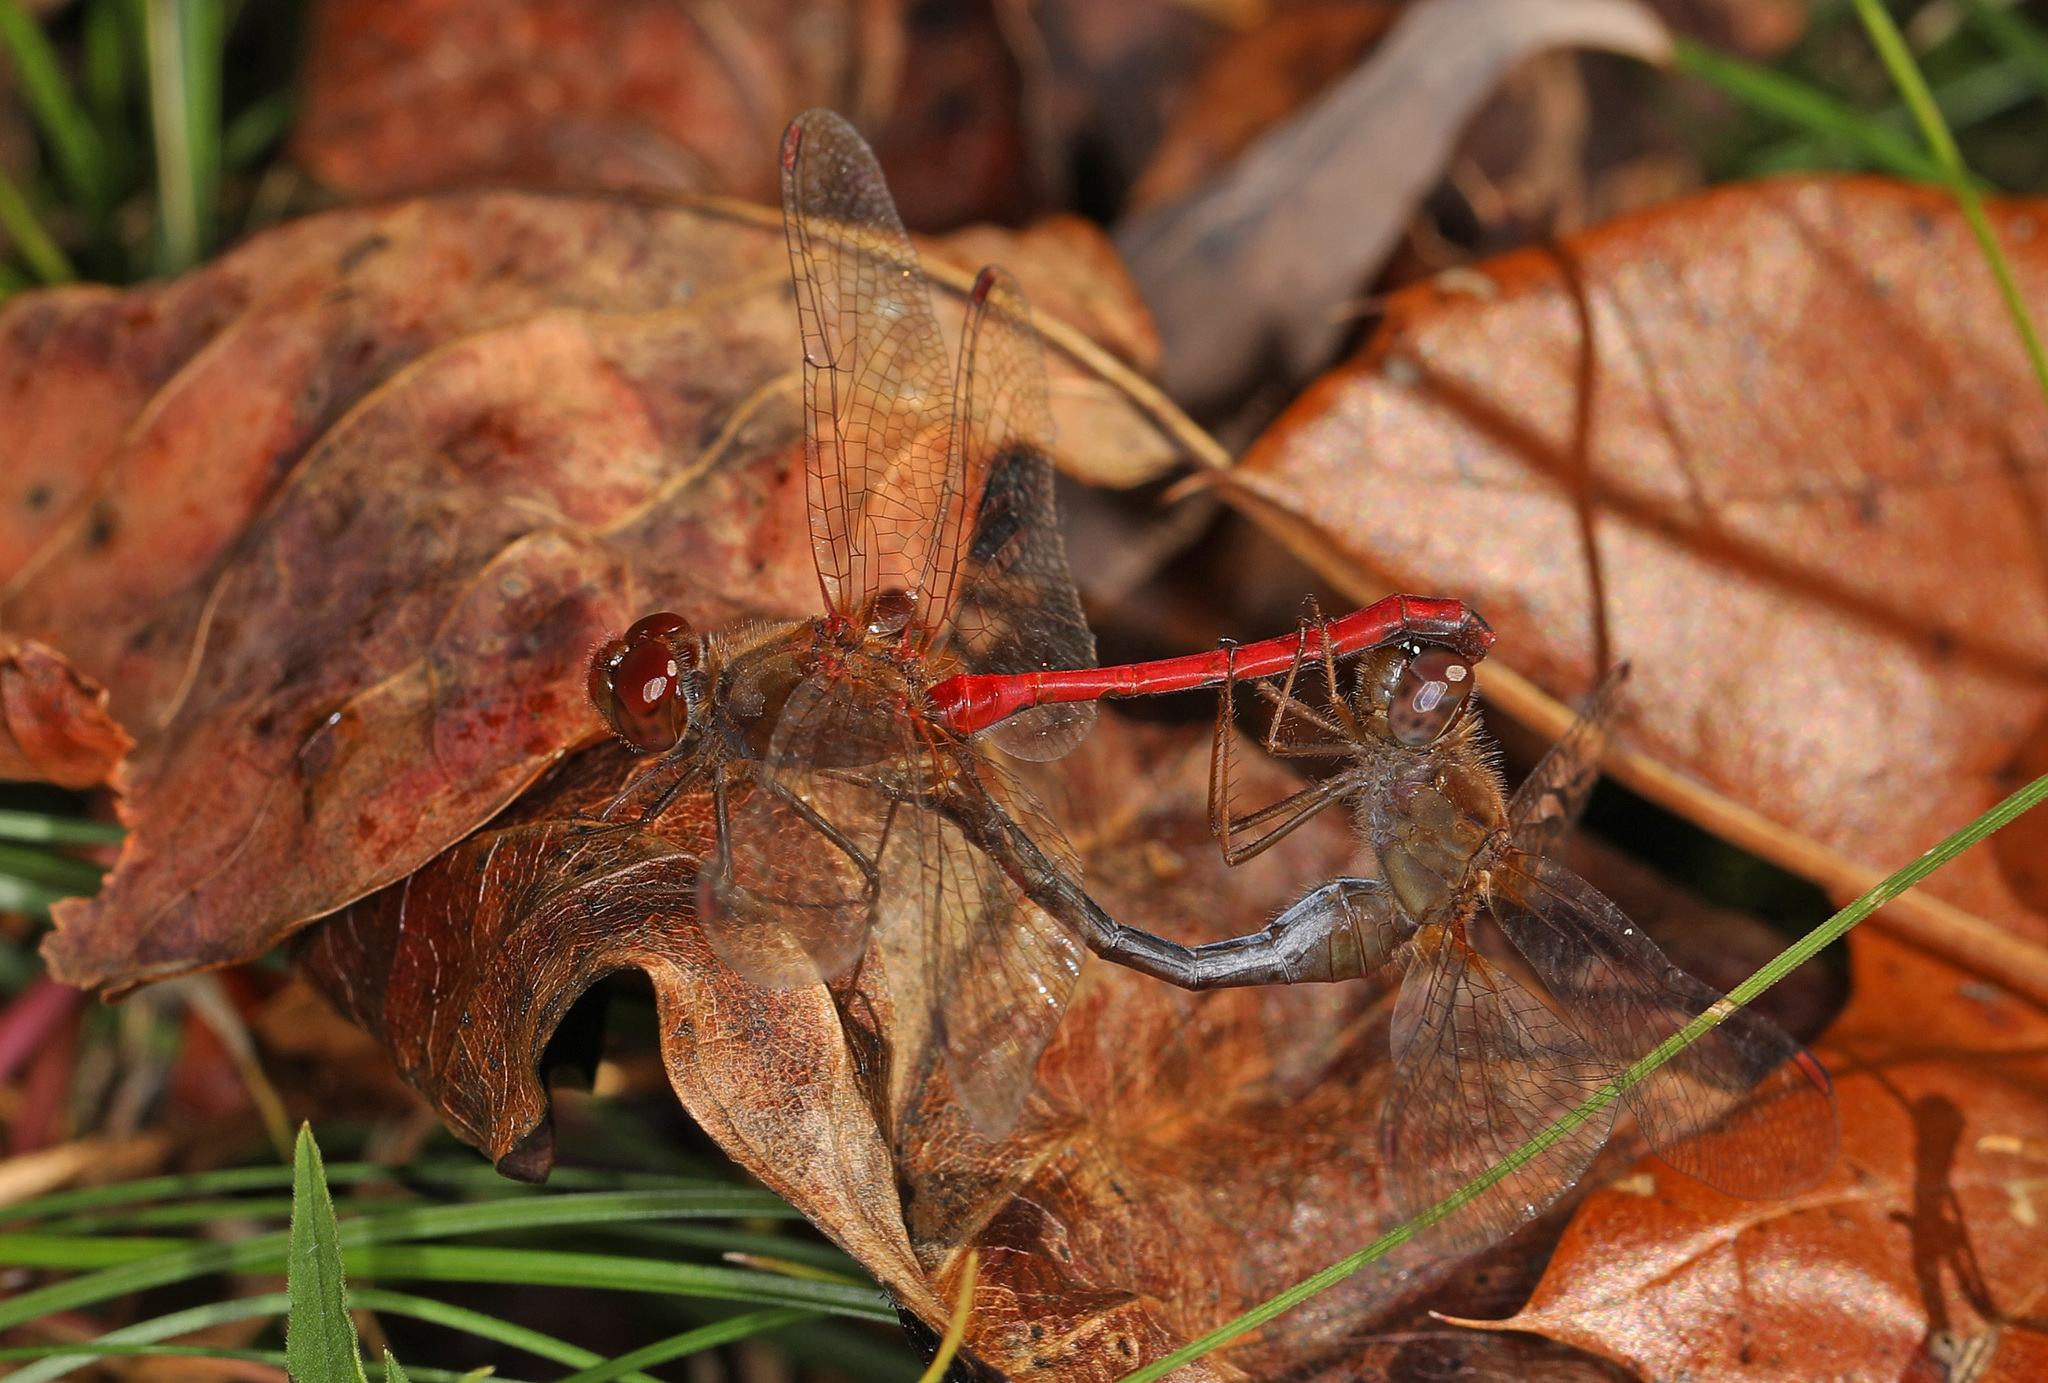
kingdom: Animalia
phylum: Arthropoda
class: Insecta
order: Odonata
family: Libellulidae
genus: Sympetrum
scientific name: Sympetrum vicinum
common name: Autumn meadowhawk
